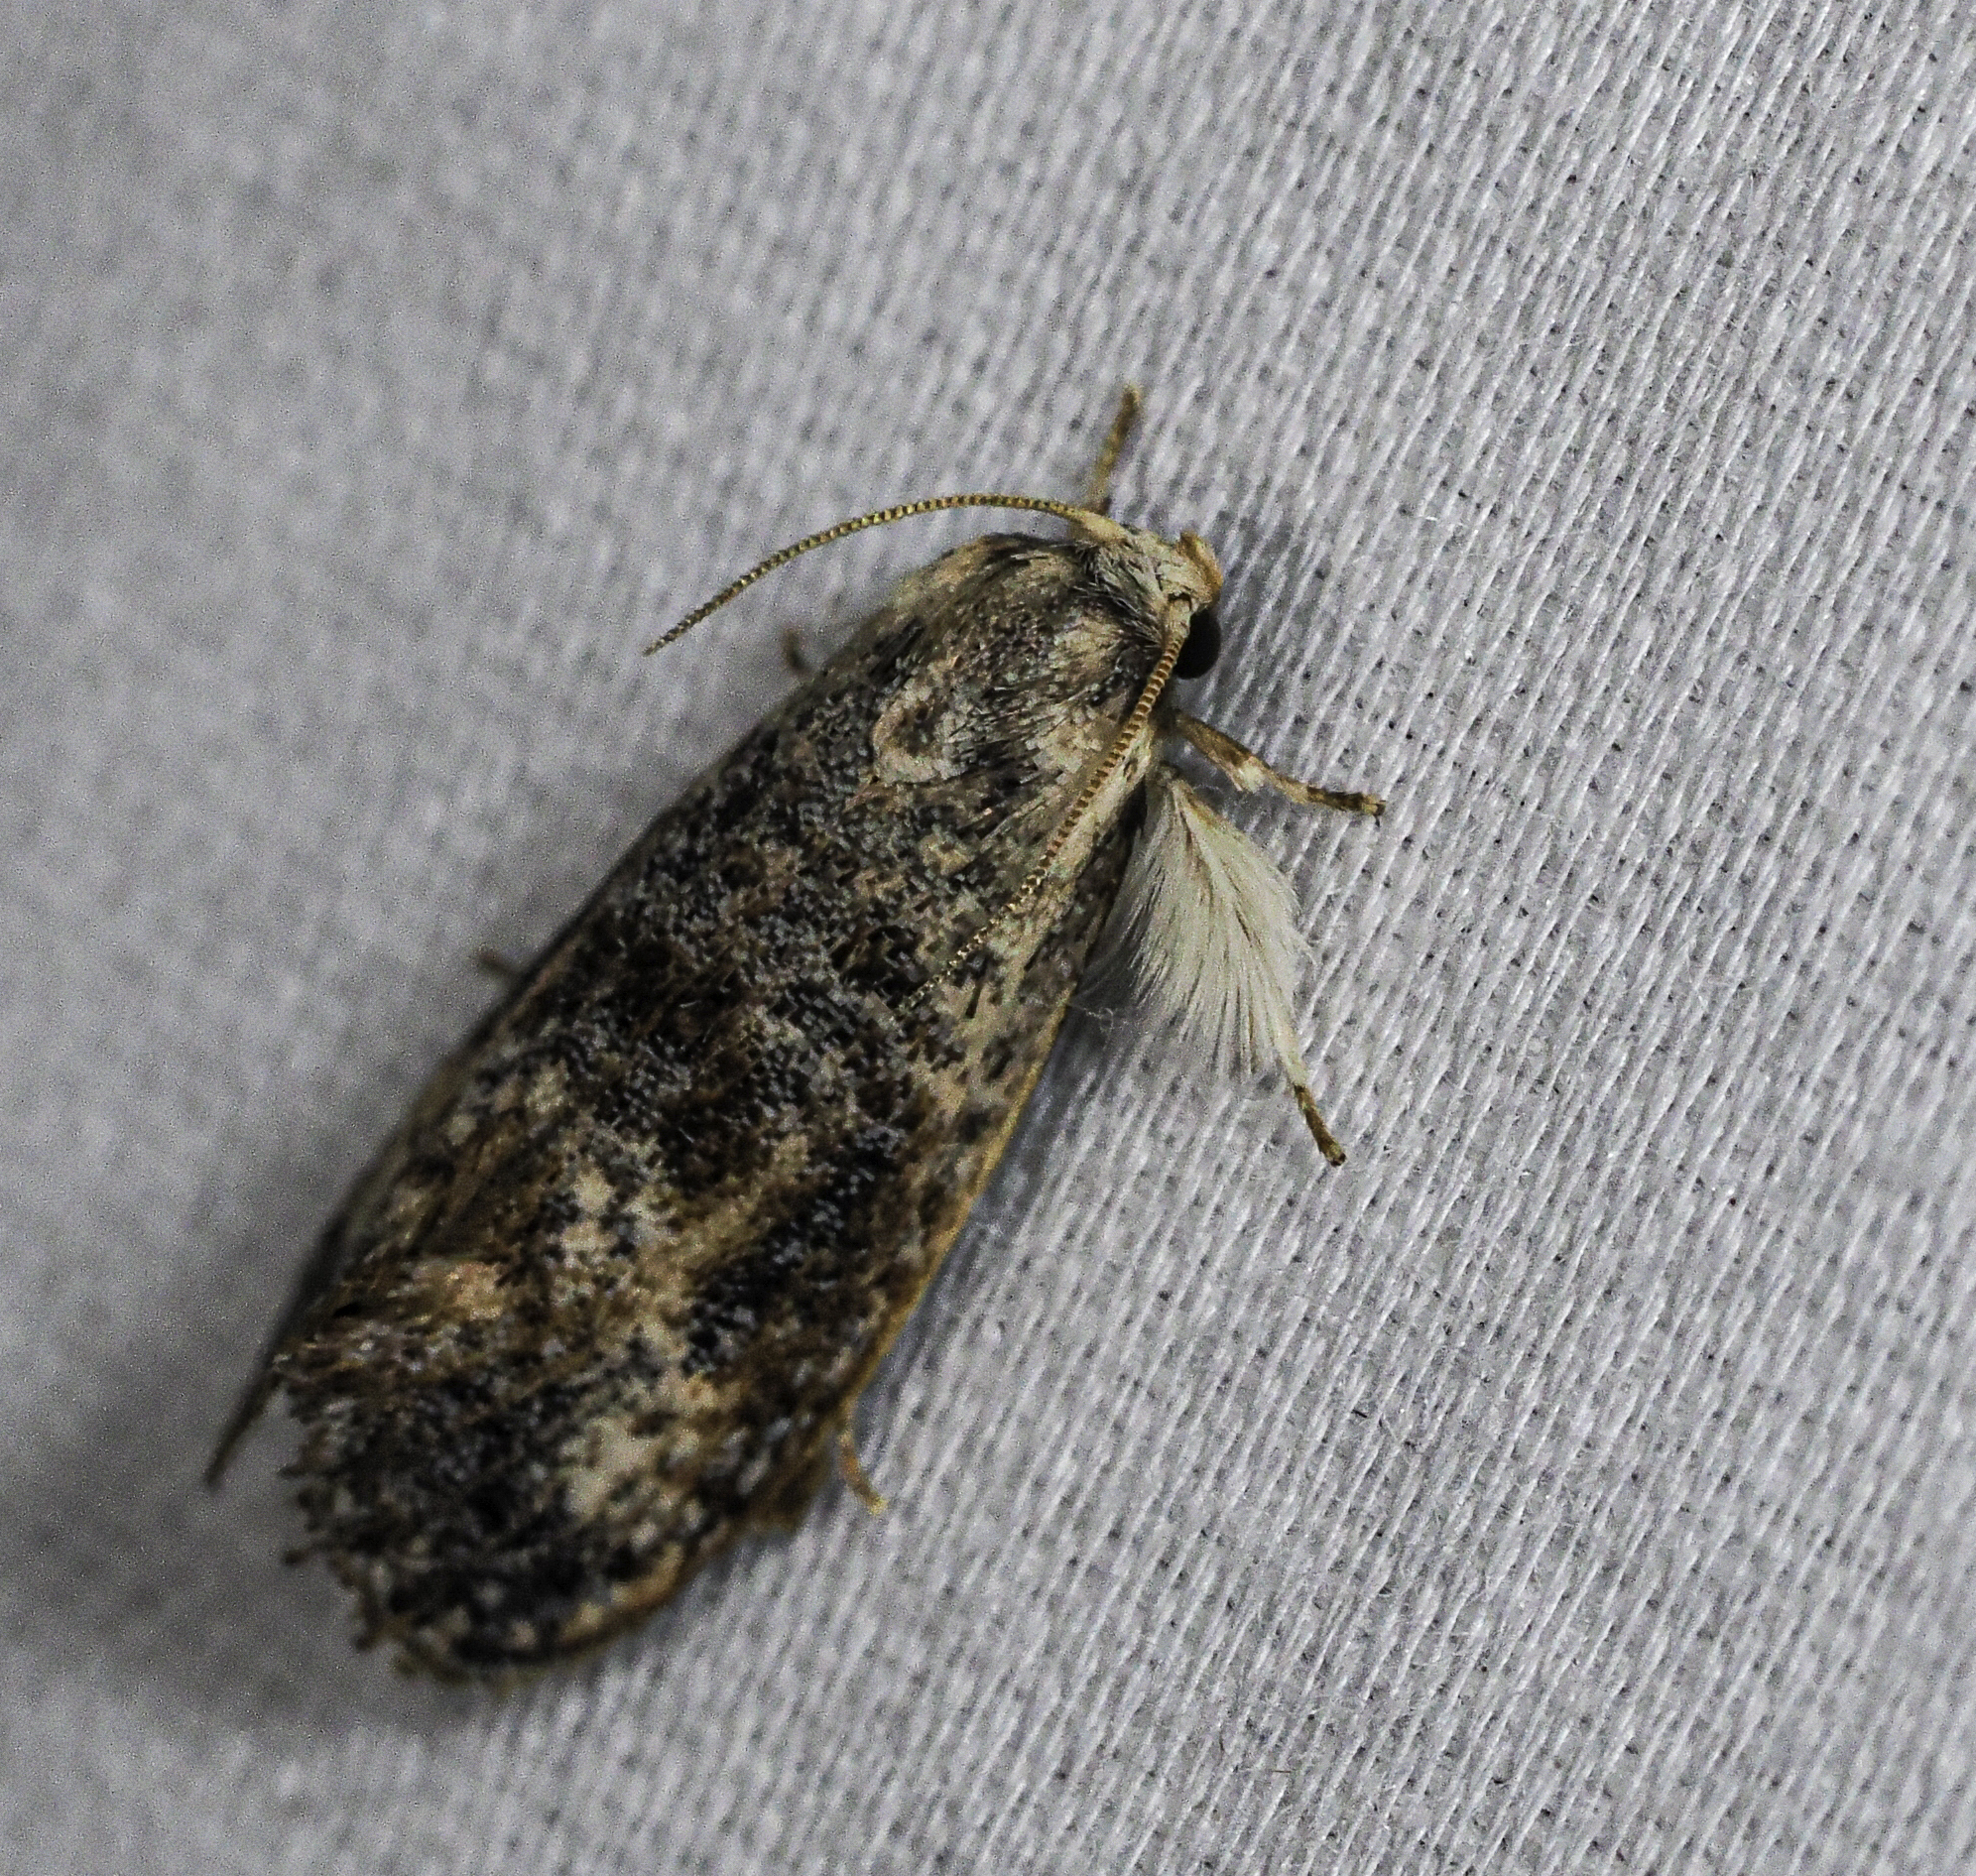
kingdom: Animalia
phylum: Arthropoda
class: Insecta
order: Lepidoptera
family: Tineidae
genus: Acrolophus
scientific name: Acrolophus mycetophagus
